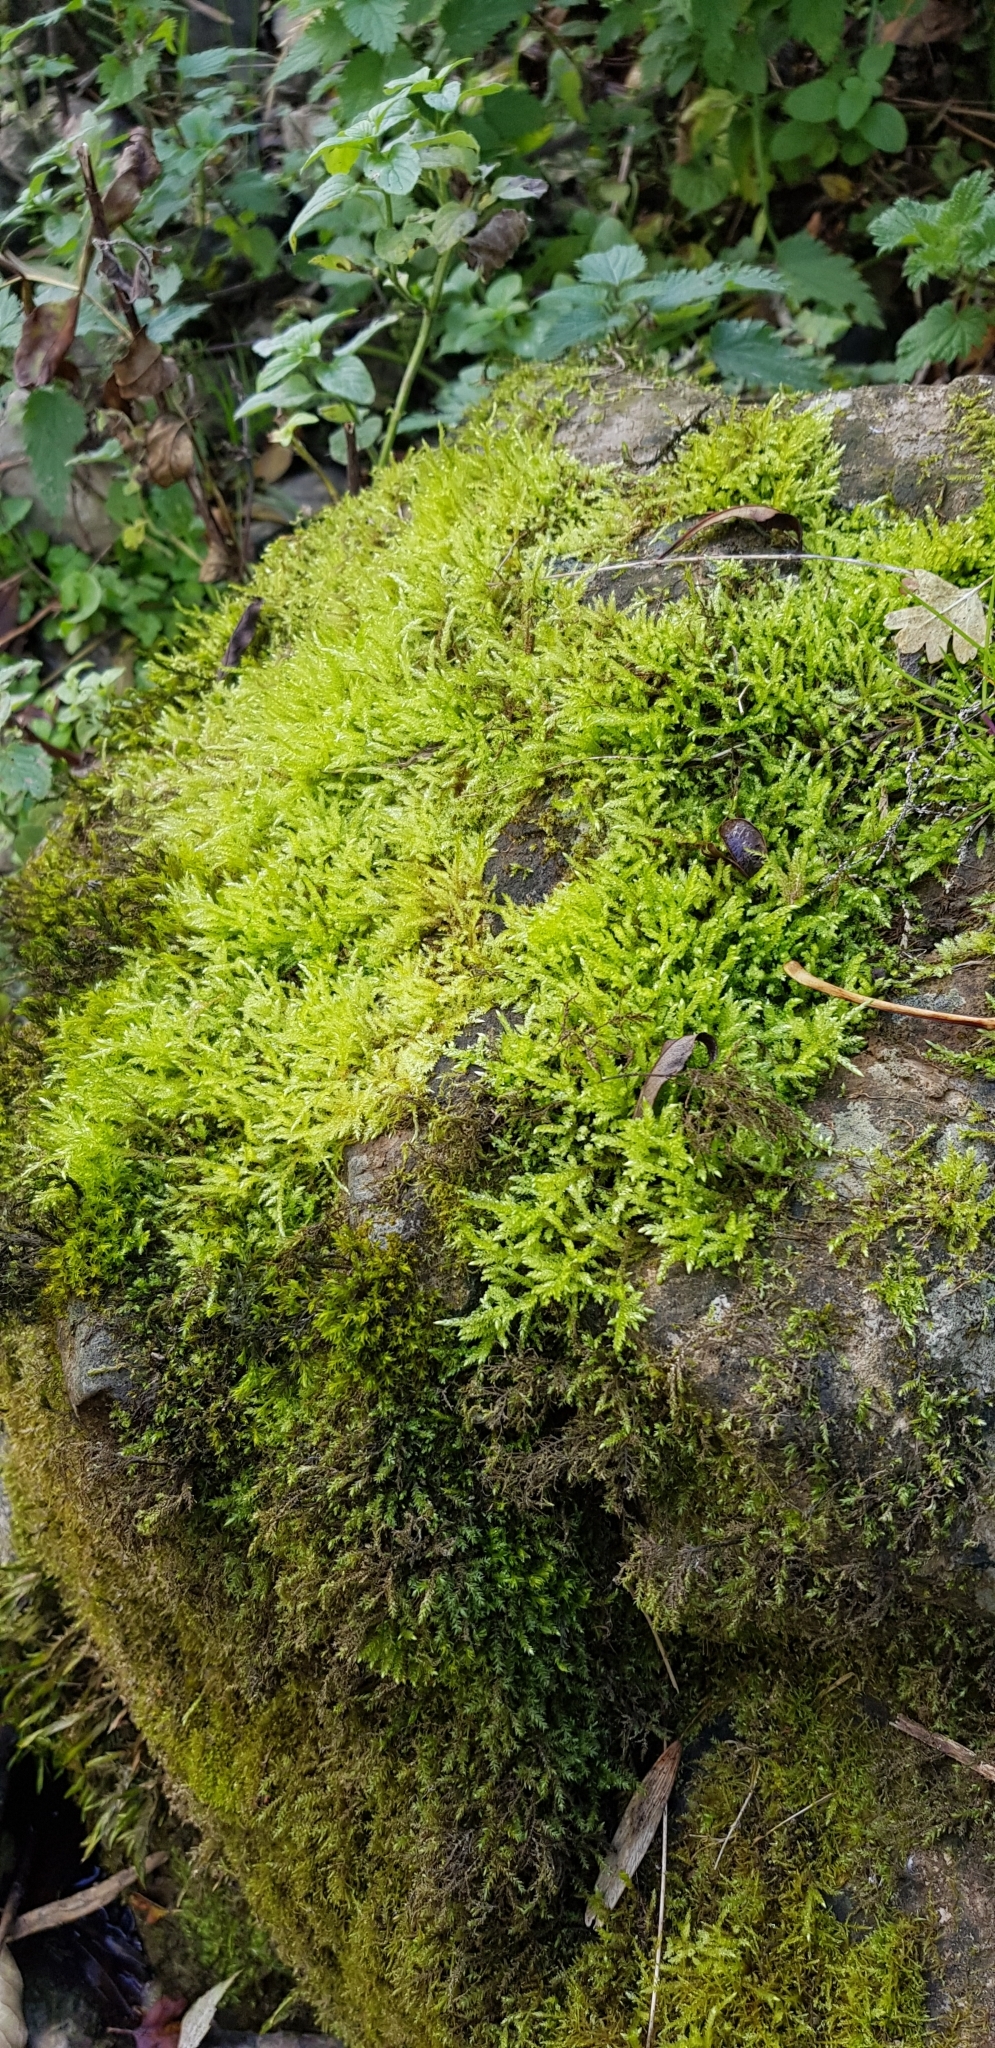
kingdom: Plantae
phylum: Bryophyta
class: Bryopsida
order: Hypnales
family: Brachytheciaceae
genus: Brachythecium
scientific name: Brachythecium rivulare
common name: River ragged moss
